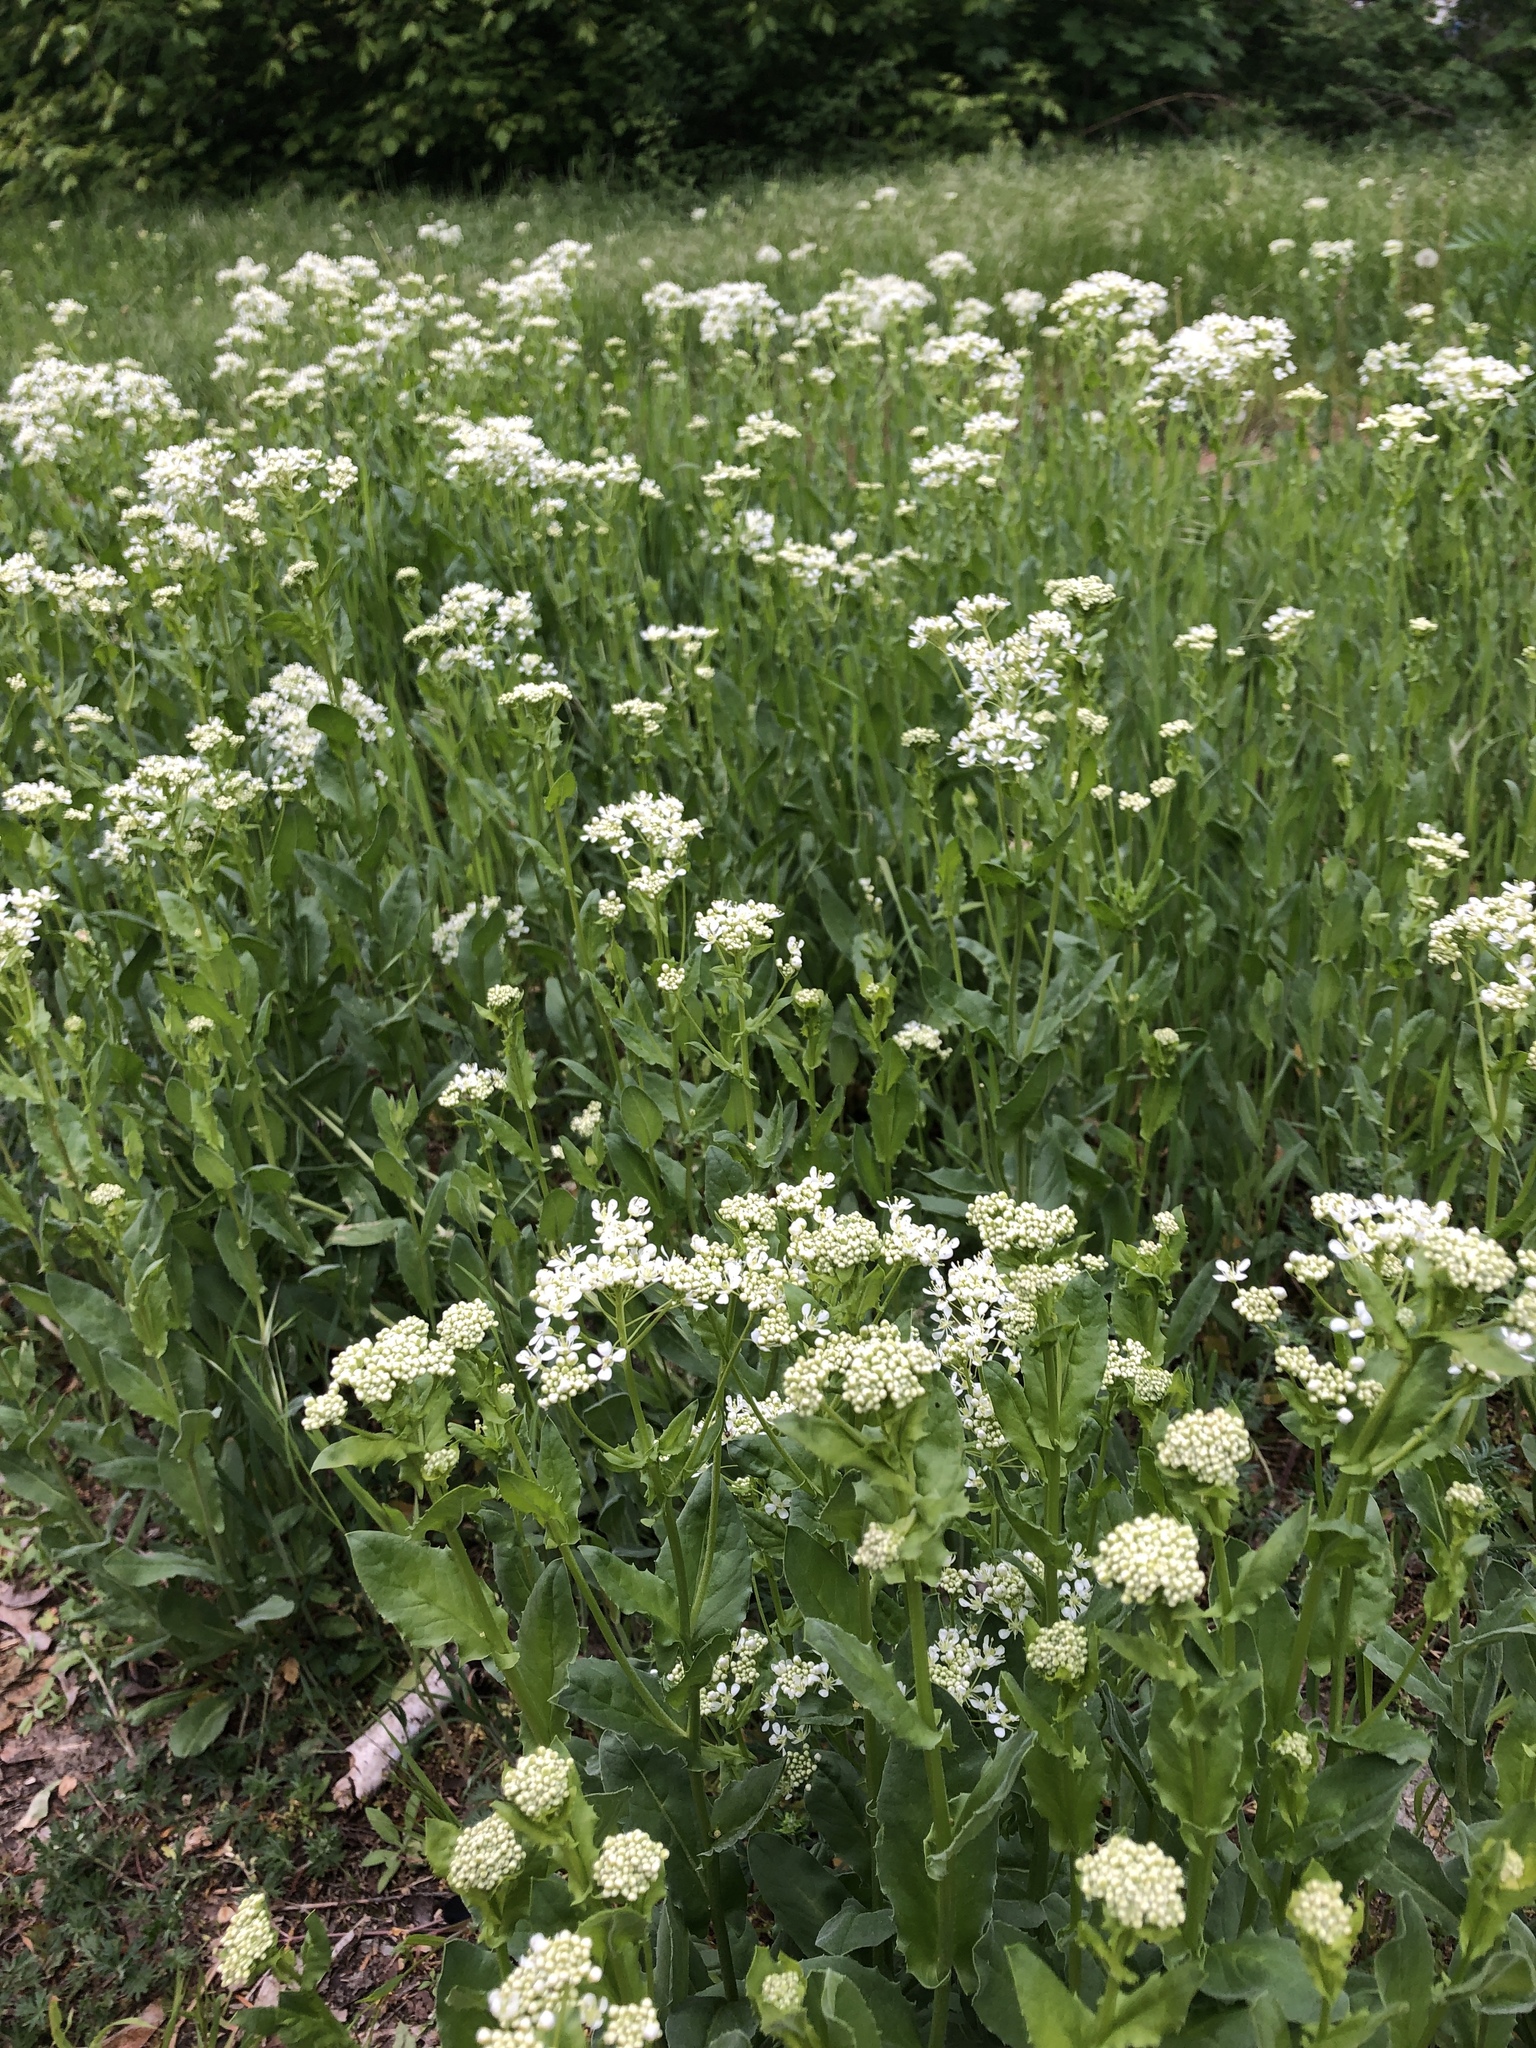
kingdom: Plantae
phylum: Tracheophyta
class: Magnoliopsida
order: Brassicales
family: Brassicaceae
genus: Lepidium
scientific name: Lepidium draba
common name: Hoary cress
